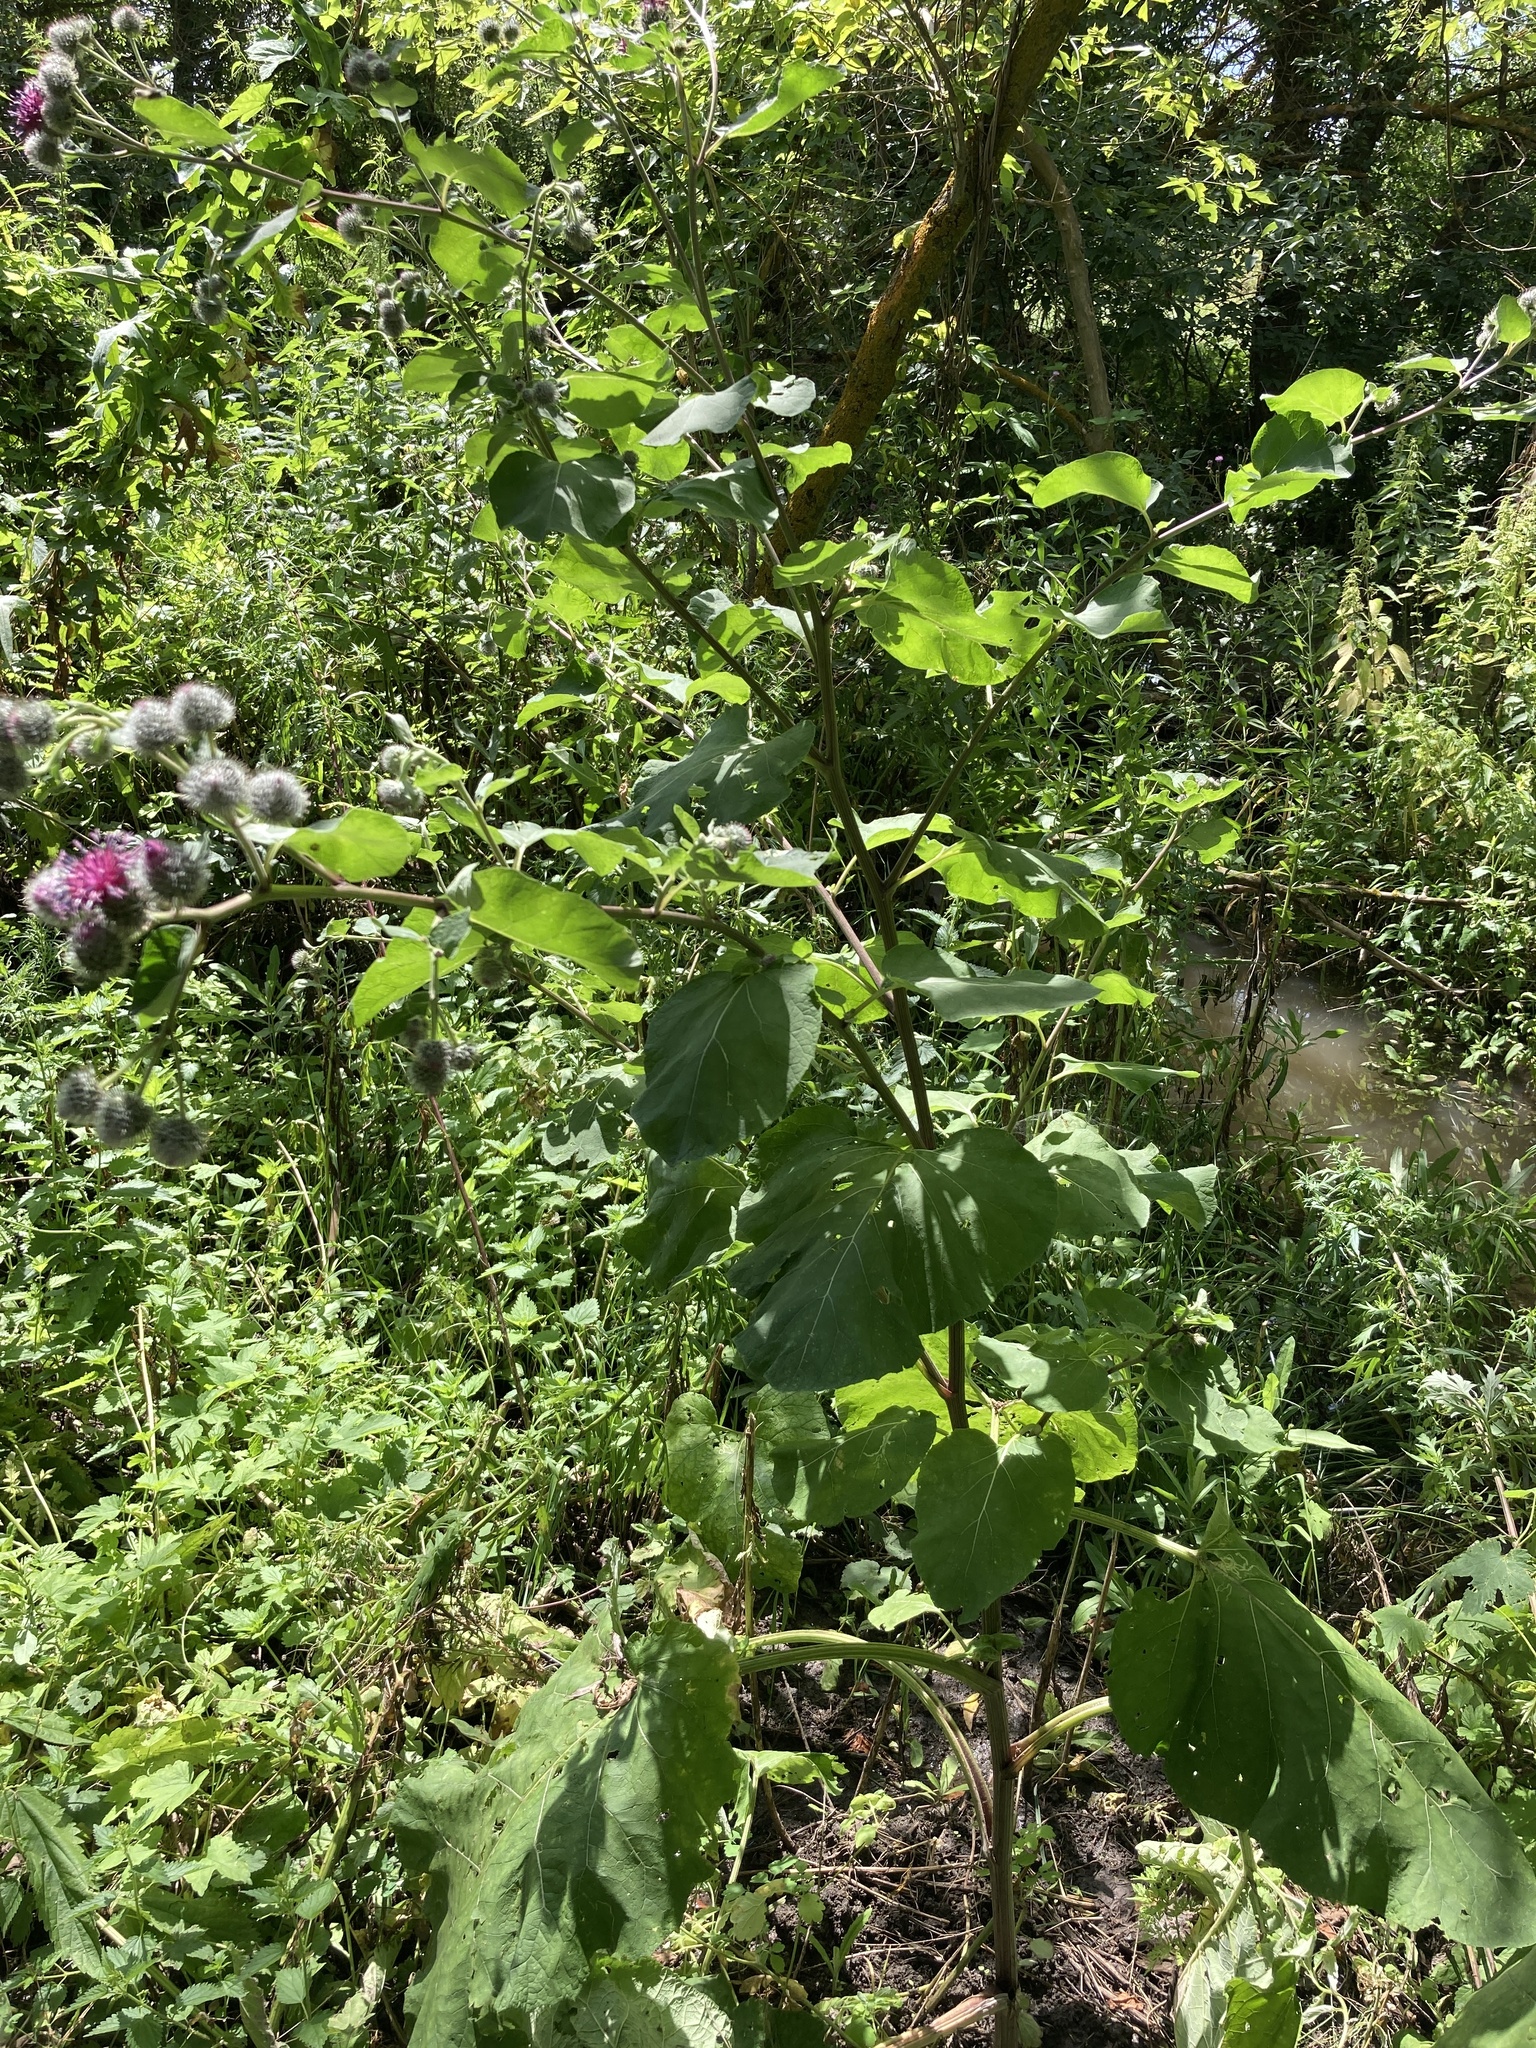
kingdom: Plantae
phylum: Tracheophyta
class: Magnoliopsida
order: Asterales
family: Asteraceae
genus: Arctium
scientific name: Arctium tomentosum
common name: Woolly burdock
